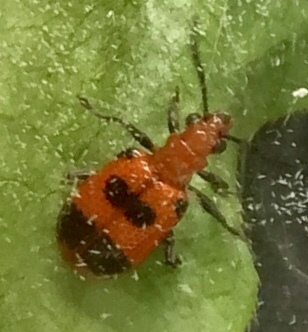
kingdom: Animalia
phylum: Arthropoda
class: Insecta
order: Coleoptera
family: Chrysomelidae
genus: Neolema
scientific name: Neolema sexpunctata
